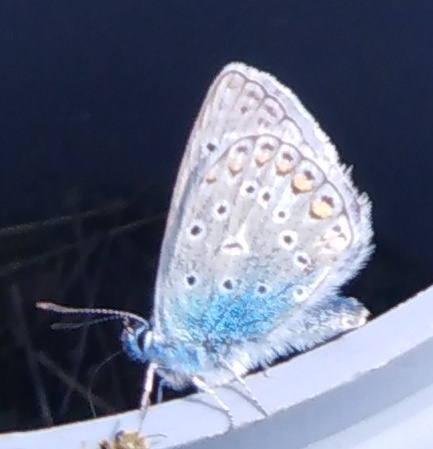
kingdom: Animalia
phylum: Arthropoda
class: Insecta
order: Lepidoptera
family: Lycaenidae
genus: Polyommatus
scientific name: Polyommatus icarus
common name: Common blue
